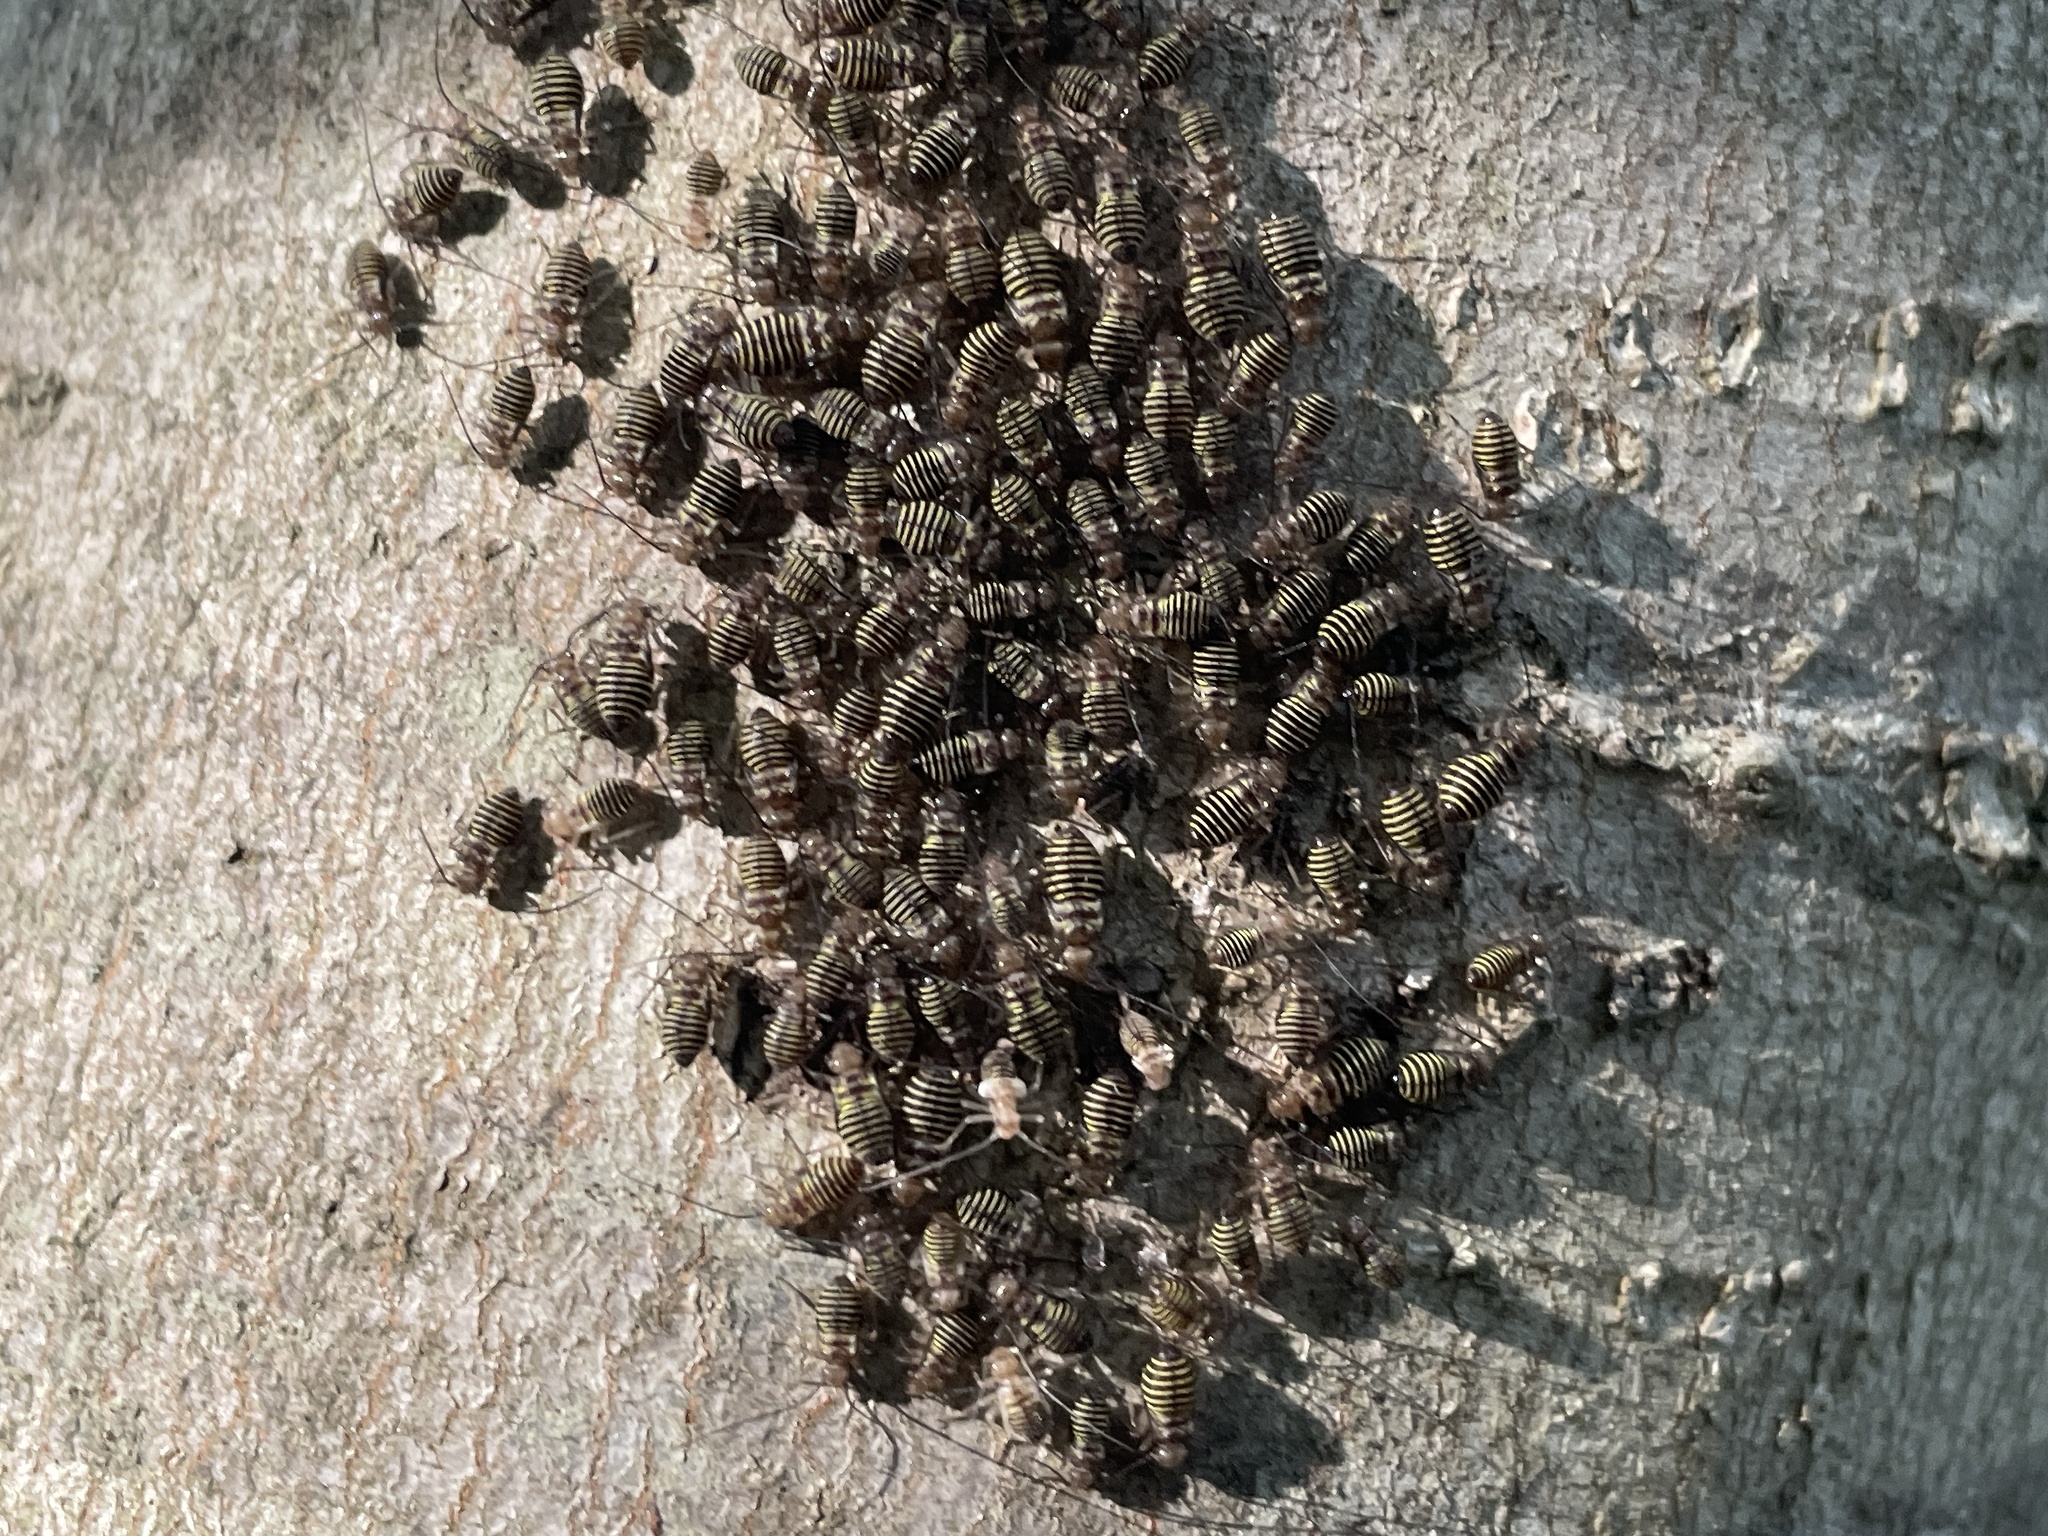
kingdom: Animalia
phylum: Arthropoda
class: Insecta
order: Psocodea
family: Psocidae
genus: Cerastipsocus
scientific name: Cerastipsocus venosus
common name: Tree cattle
